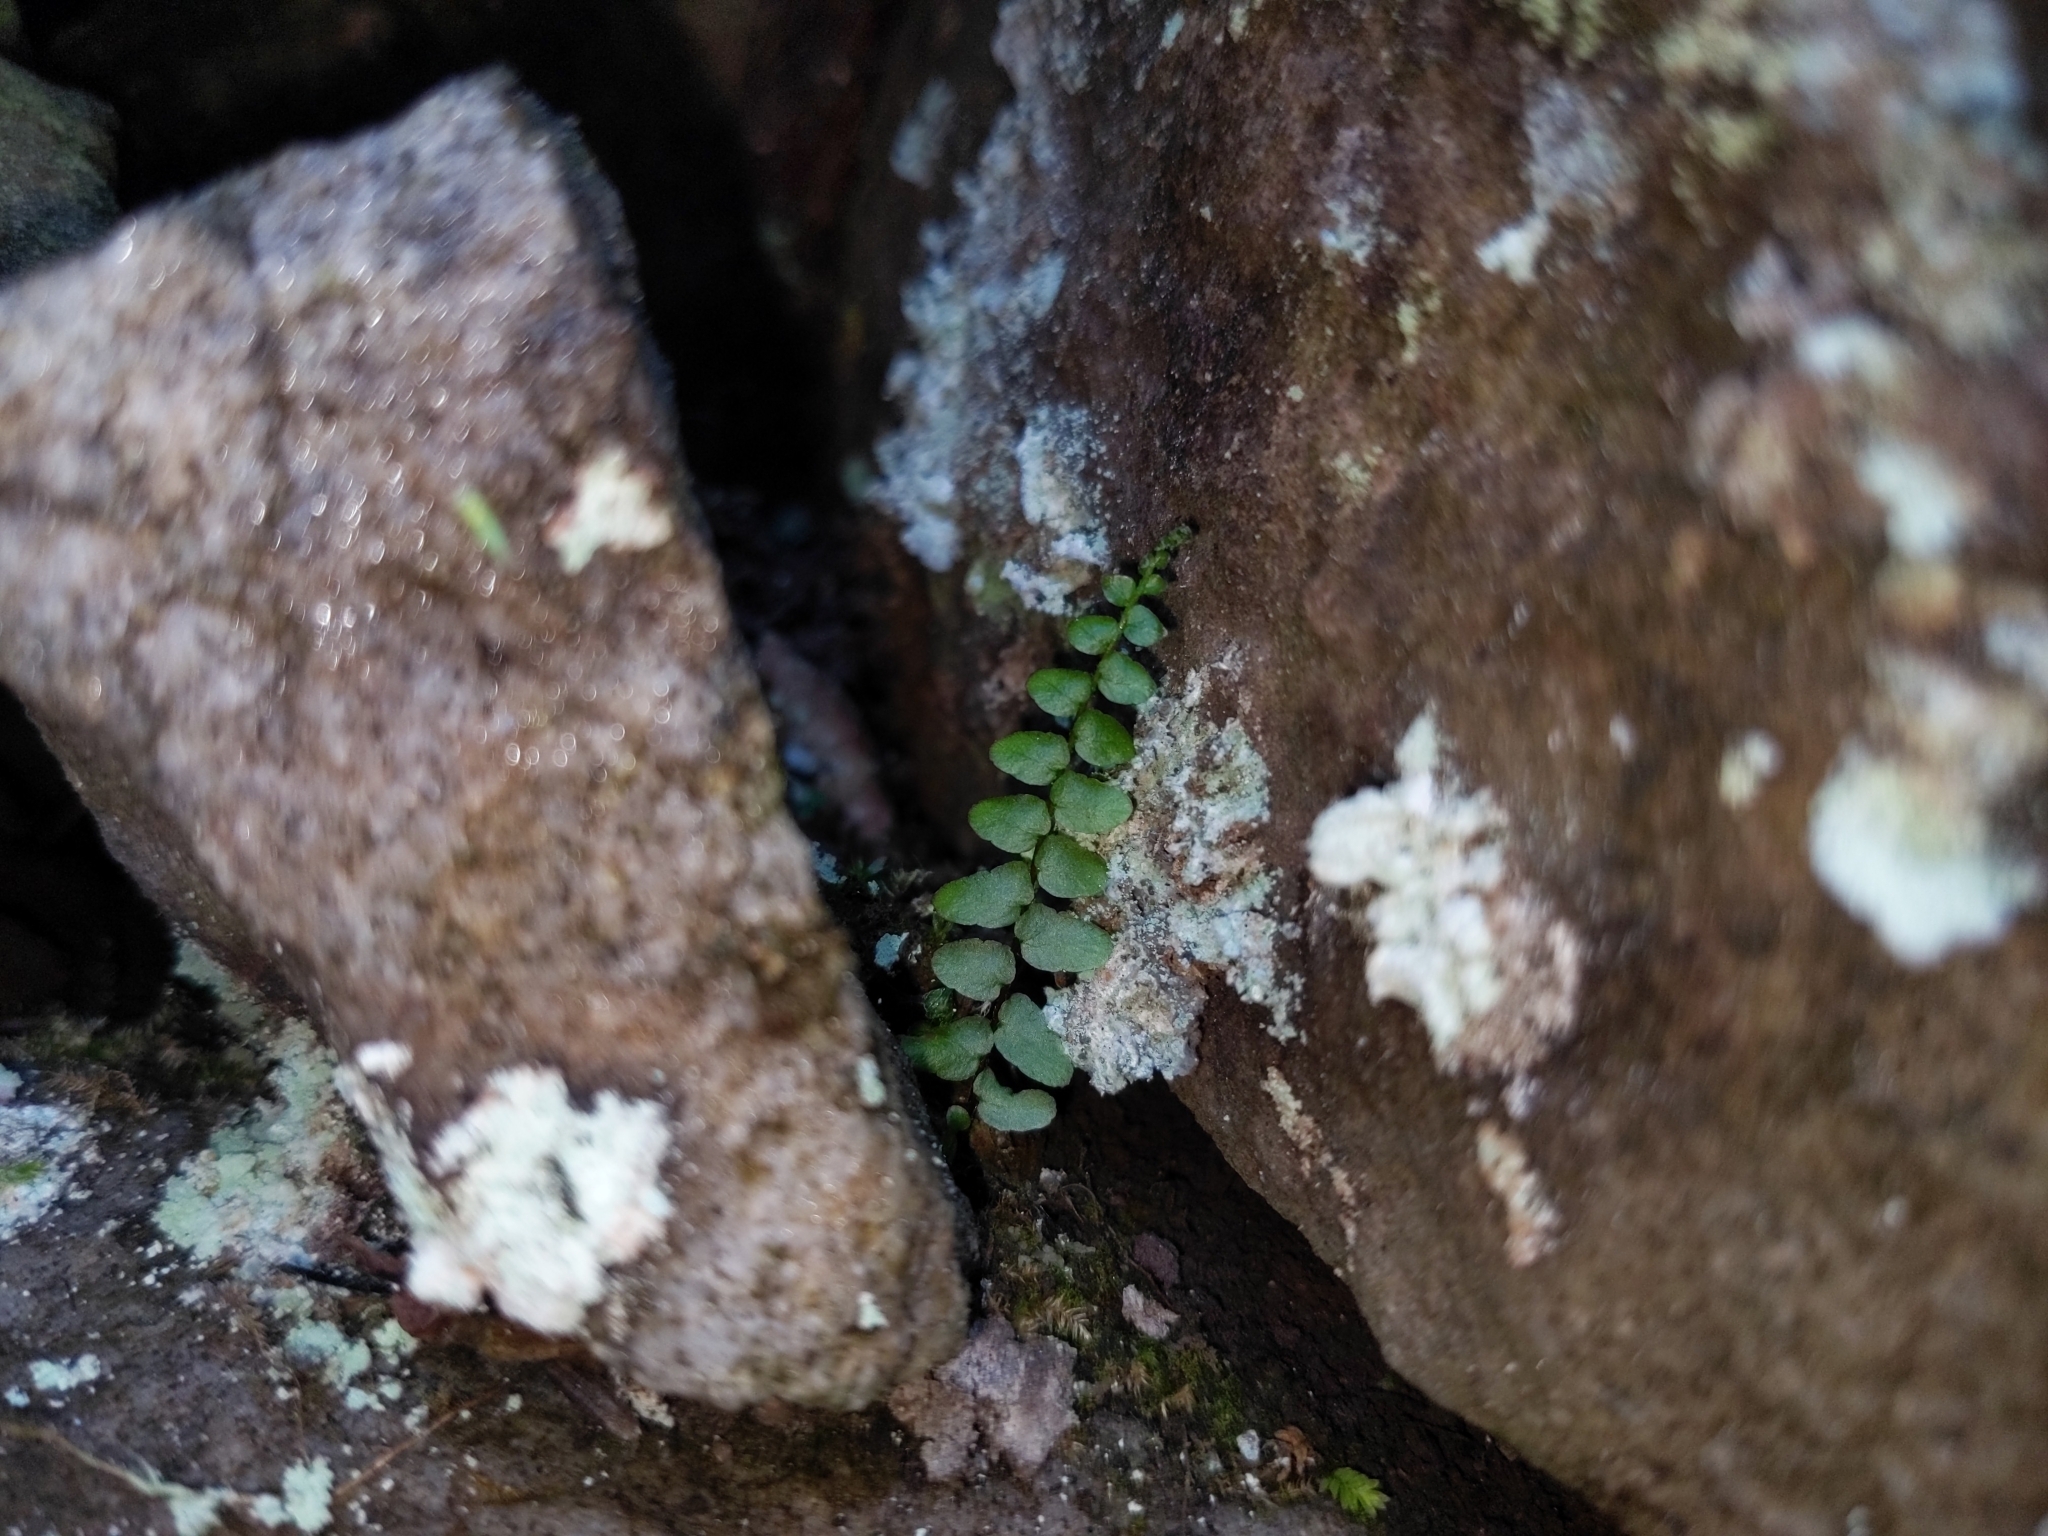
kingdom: Plantae
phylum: Tracheophyta
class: Polypodiopsida
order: Polypodiales
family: Aspleniaceae
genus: Asplenium
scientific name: Asplenium platyneuron
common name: Ebony spleenwort
